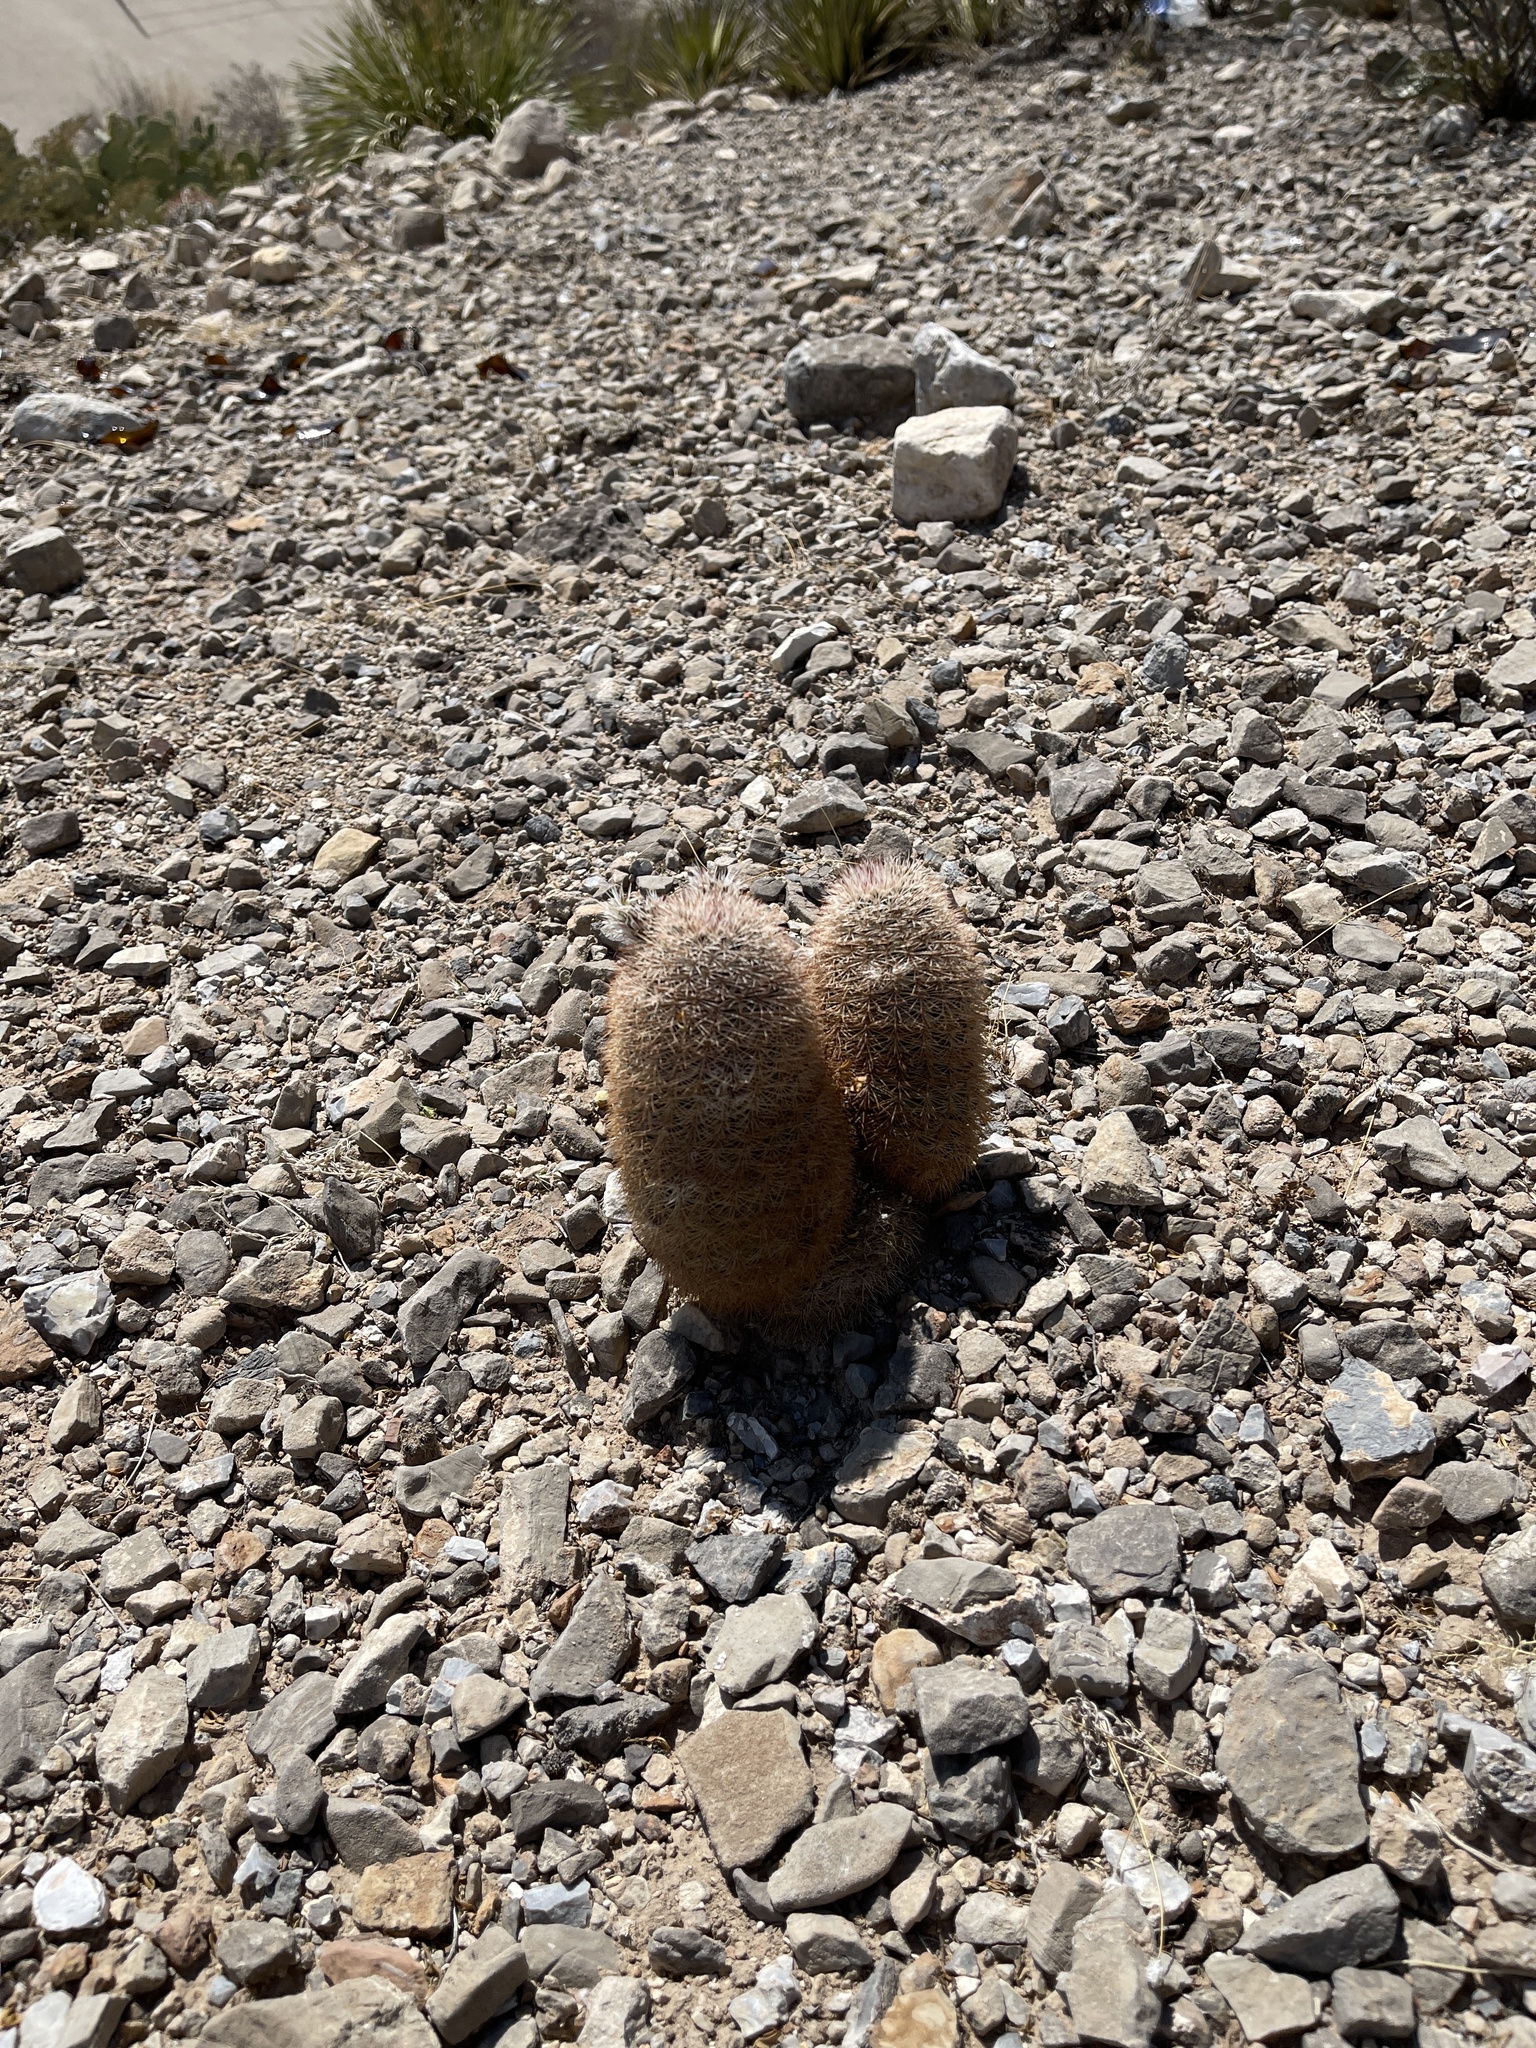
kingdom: Plantae
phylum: Tracheophyta
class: Magnoliopsida
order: Caryophyllales
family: Cactaceae
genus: Echinocereus
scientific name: Echinocereus dasyacanthus
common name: Spiny hedgehog cactus
